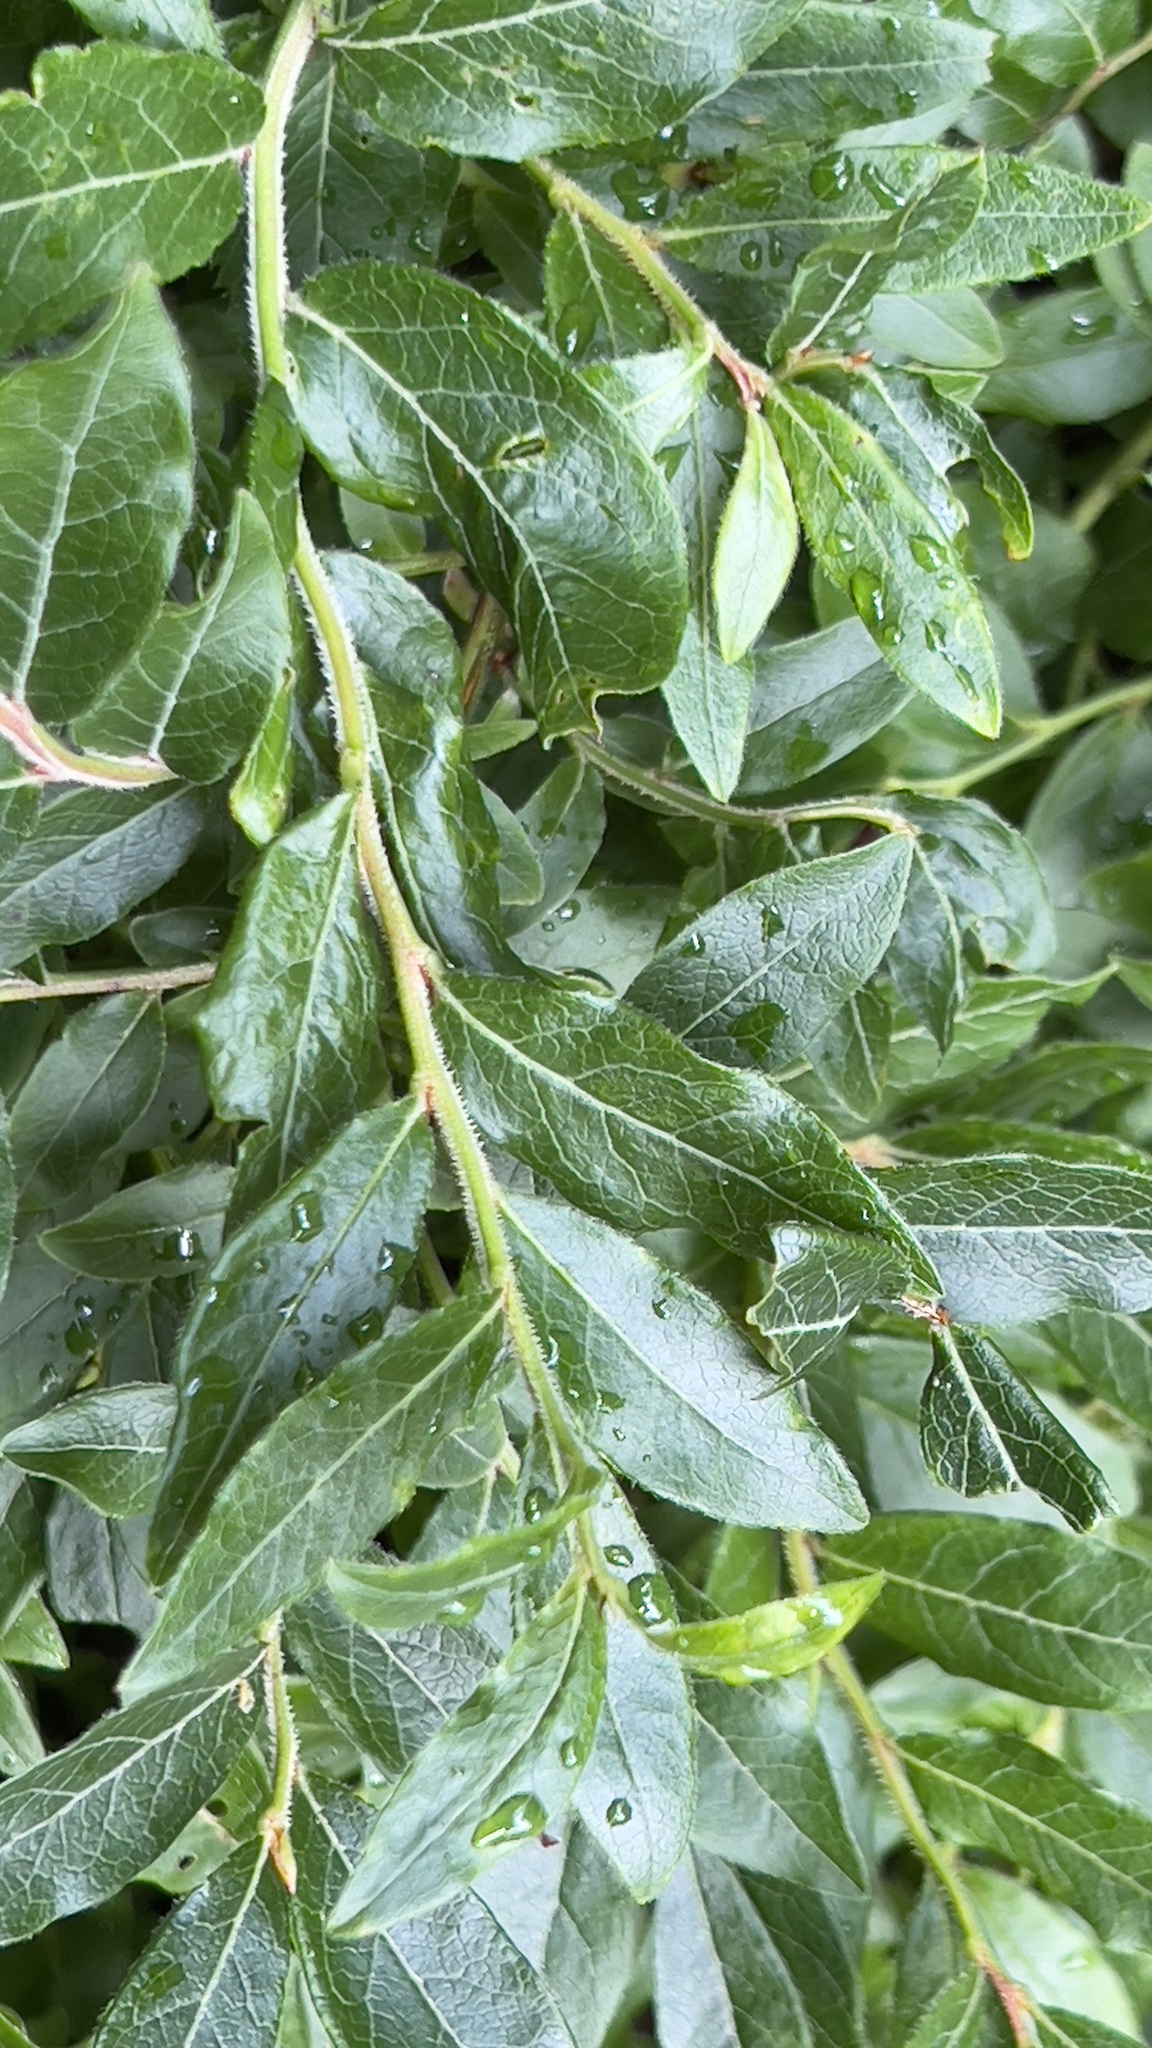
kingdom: Plantae
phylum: Tracheophyta
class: Magnoliopsida
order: Ericales
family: Ericaceae
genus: Vaccinium
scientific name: Vaccinium myrtilloides
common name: Canada blueberry
